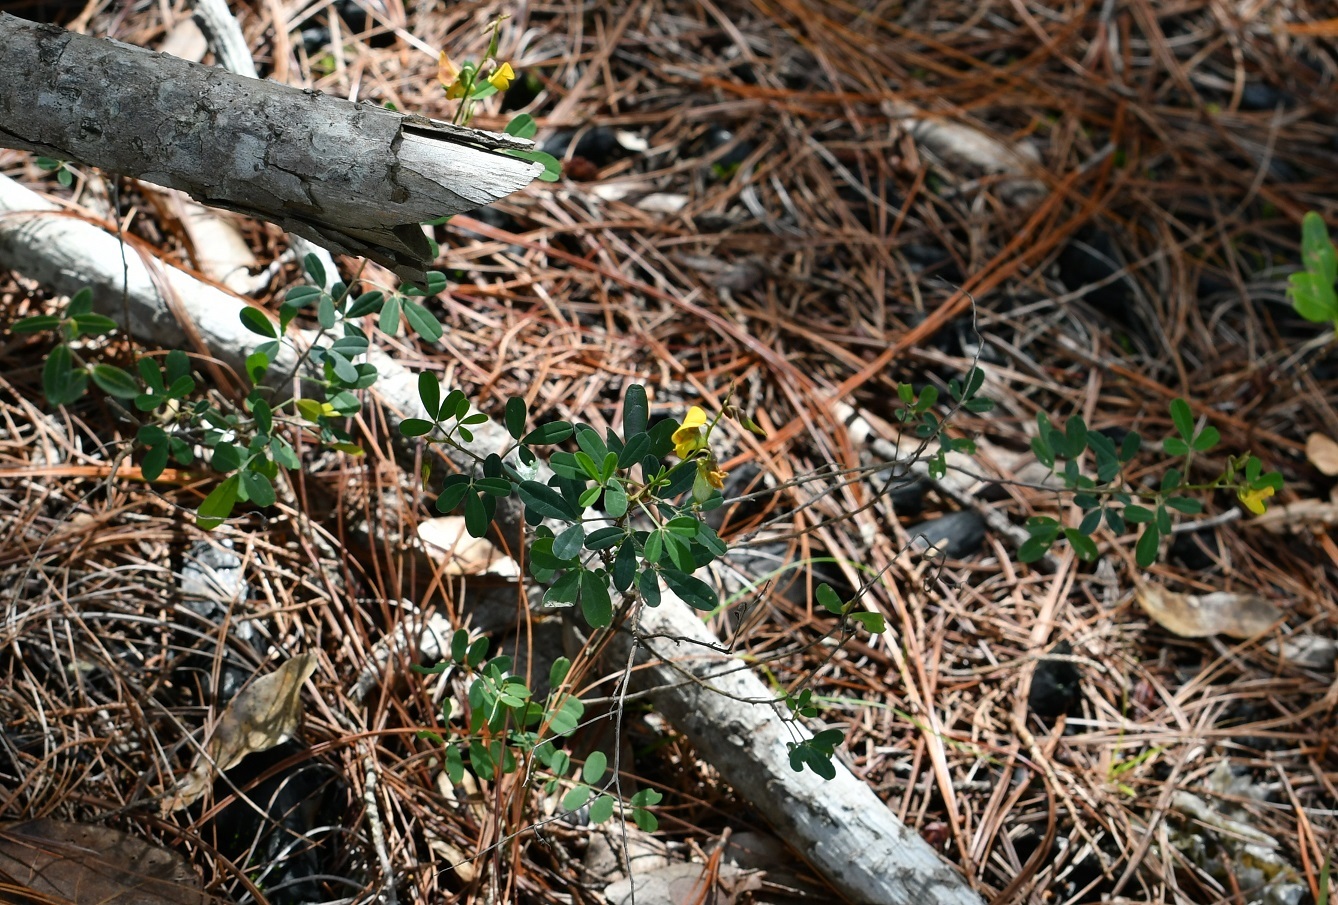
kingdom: Plantae
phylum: Tracheophyta
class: Magnoliopsida
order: Fabales
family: Fabaceae
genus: Crotalaria
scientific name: Crotalaria pumila
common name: Low rattlebox
